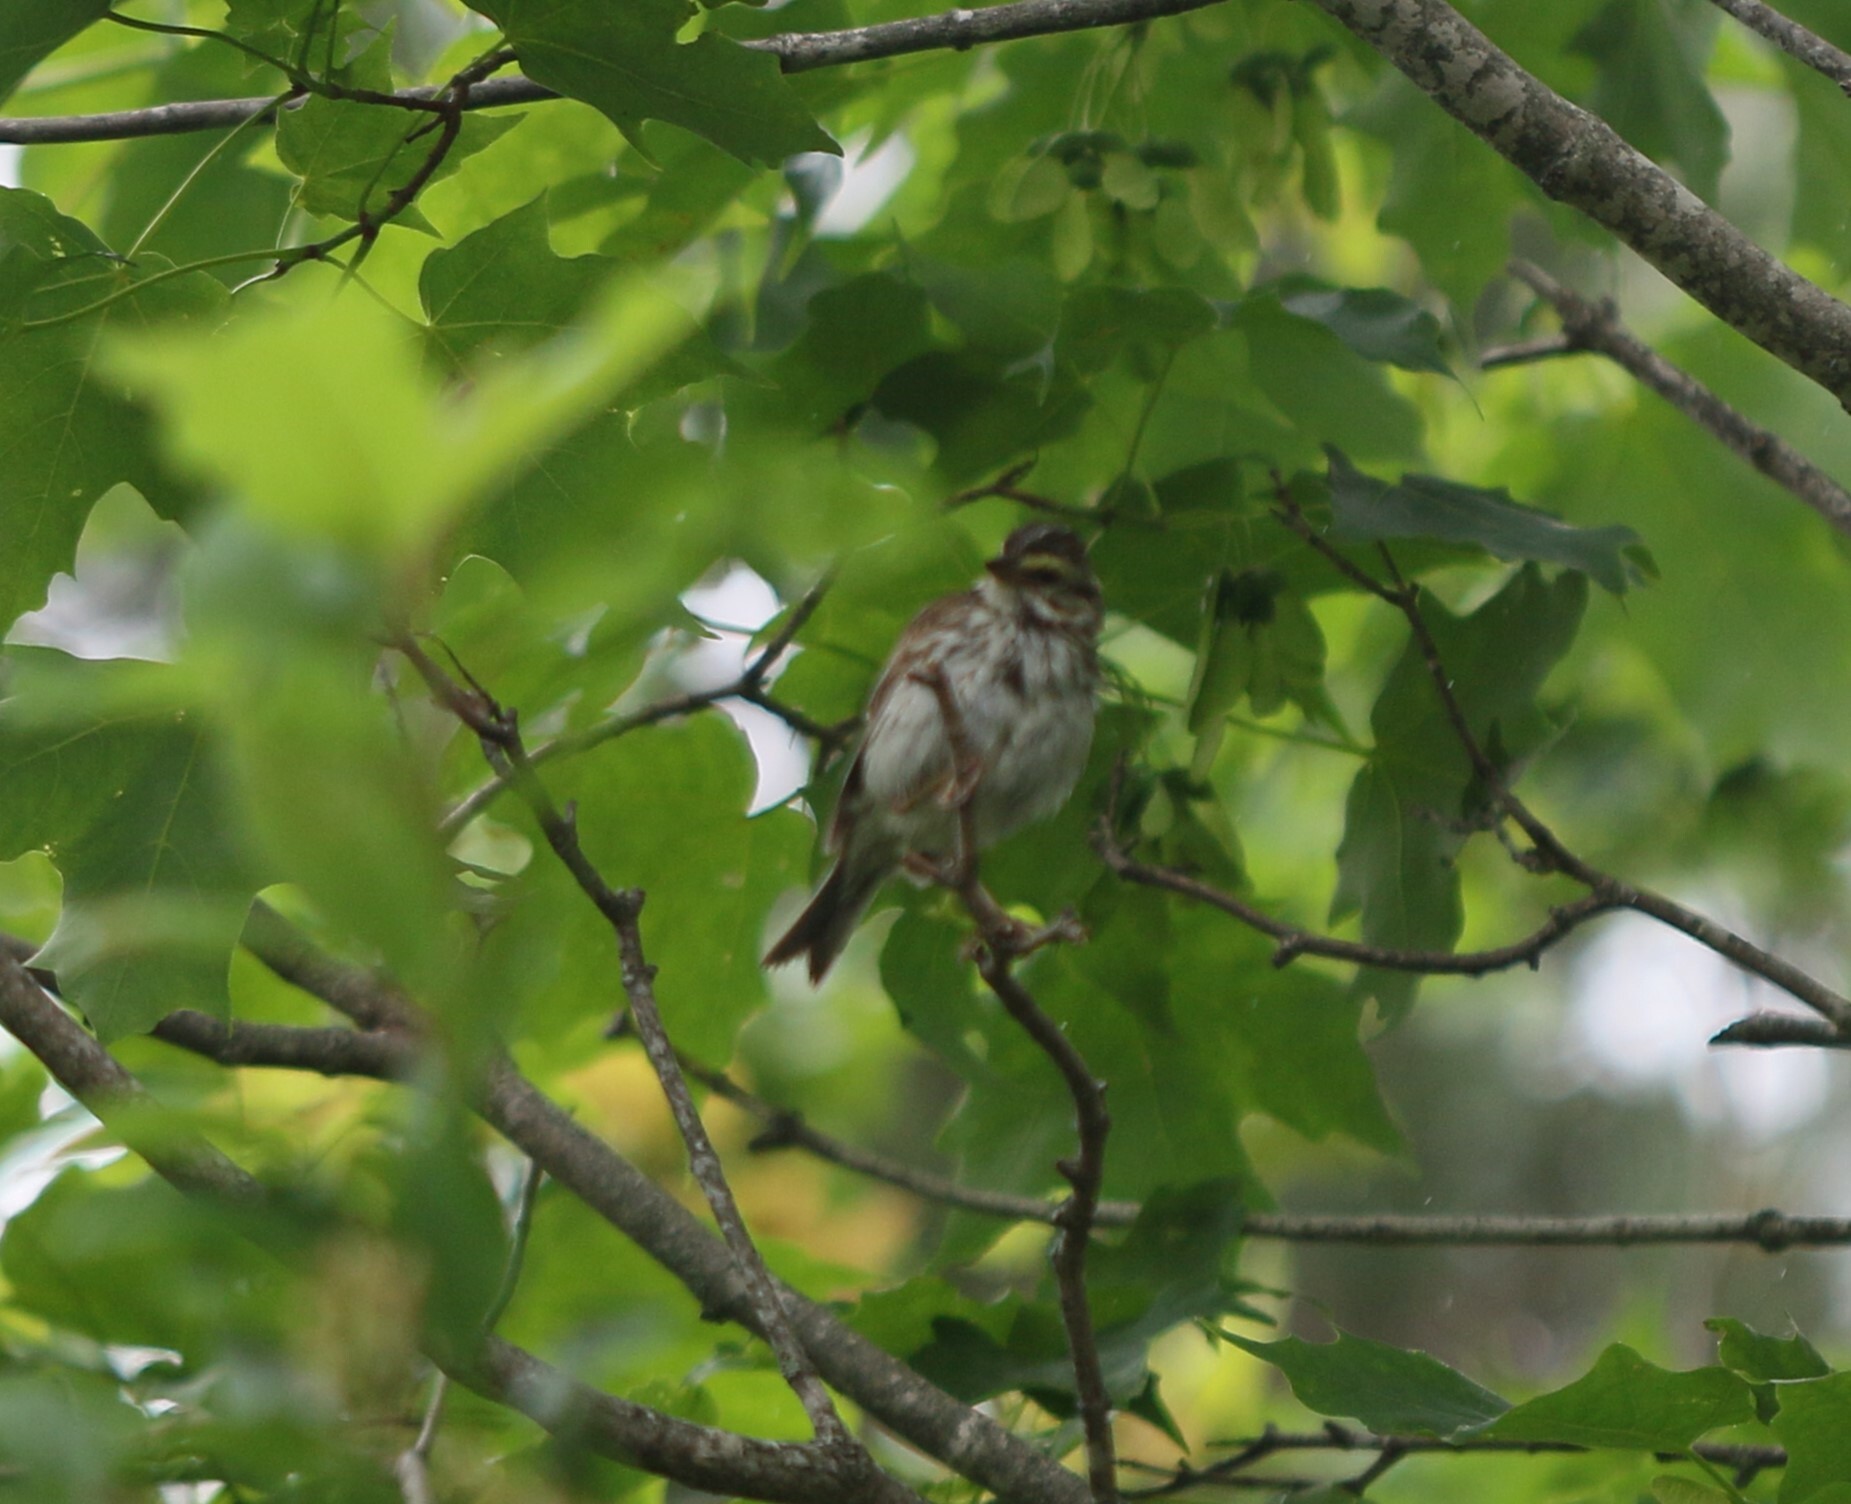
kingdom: Animalia
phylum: Chordata
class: Aves
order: Passeriformes
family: Passerellidae
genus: Passerculus
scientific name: Passerculus sandwichensis
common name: Savannah sparrow
